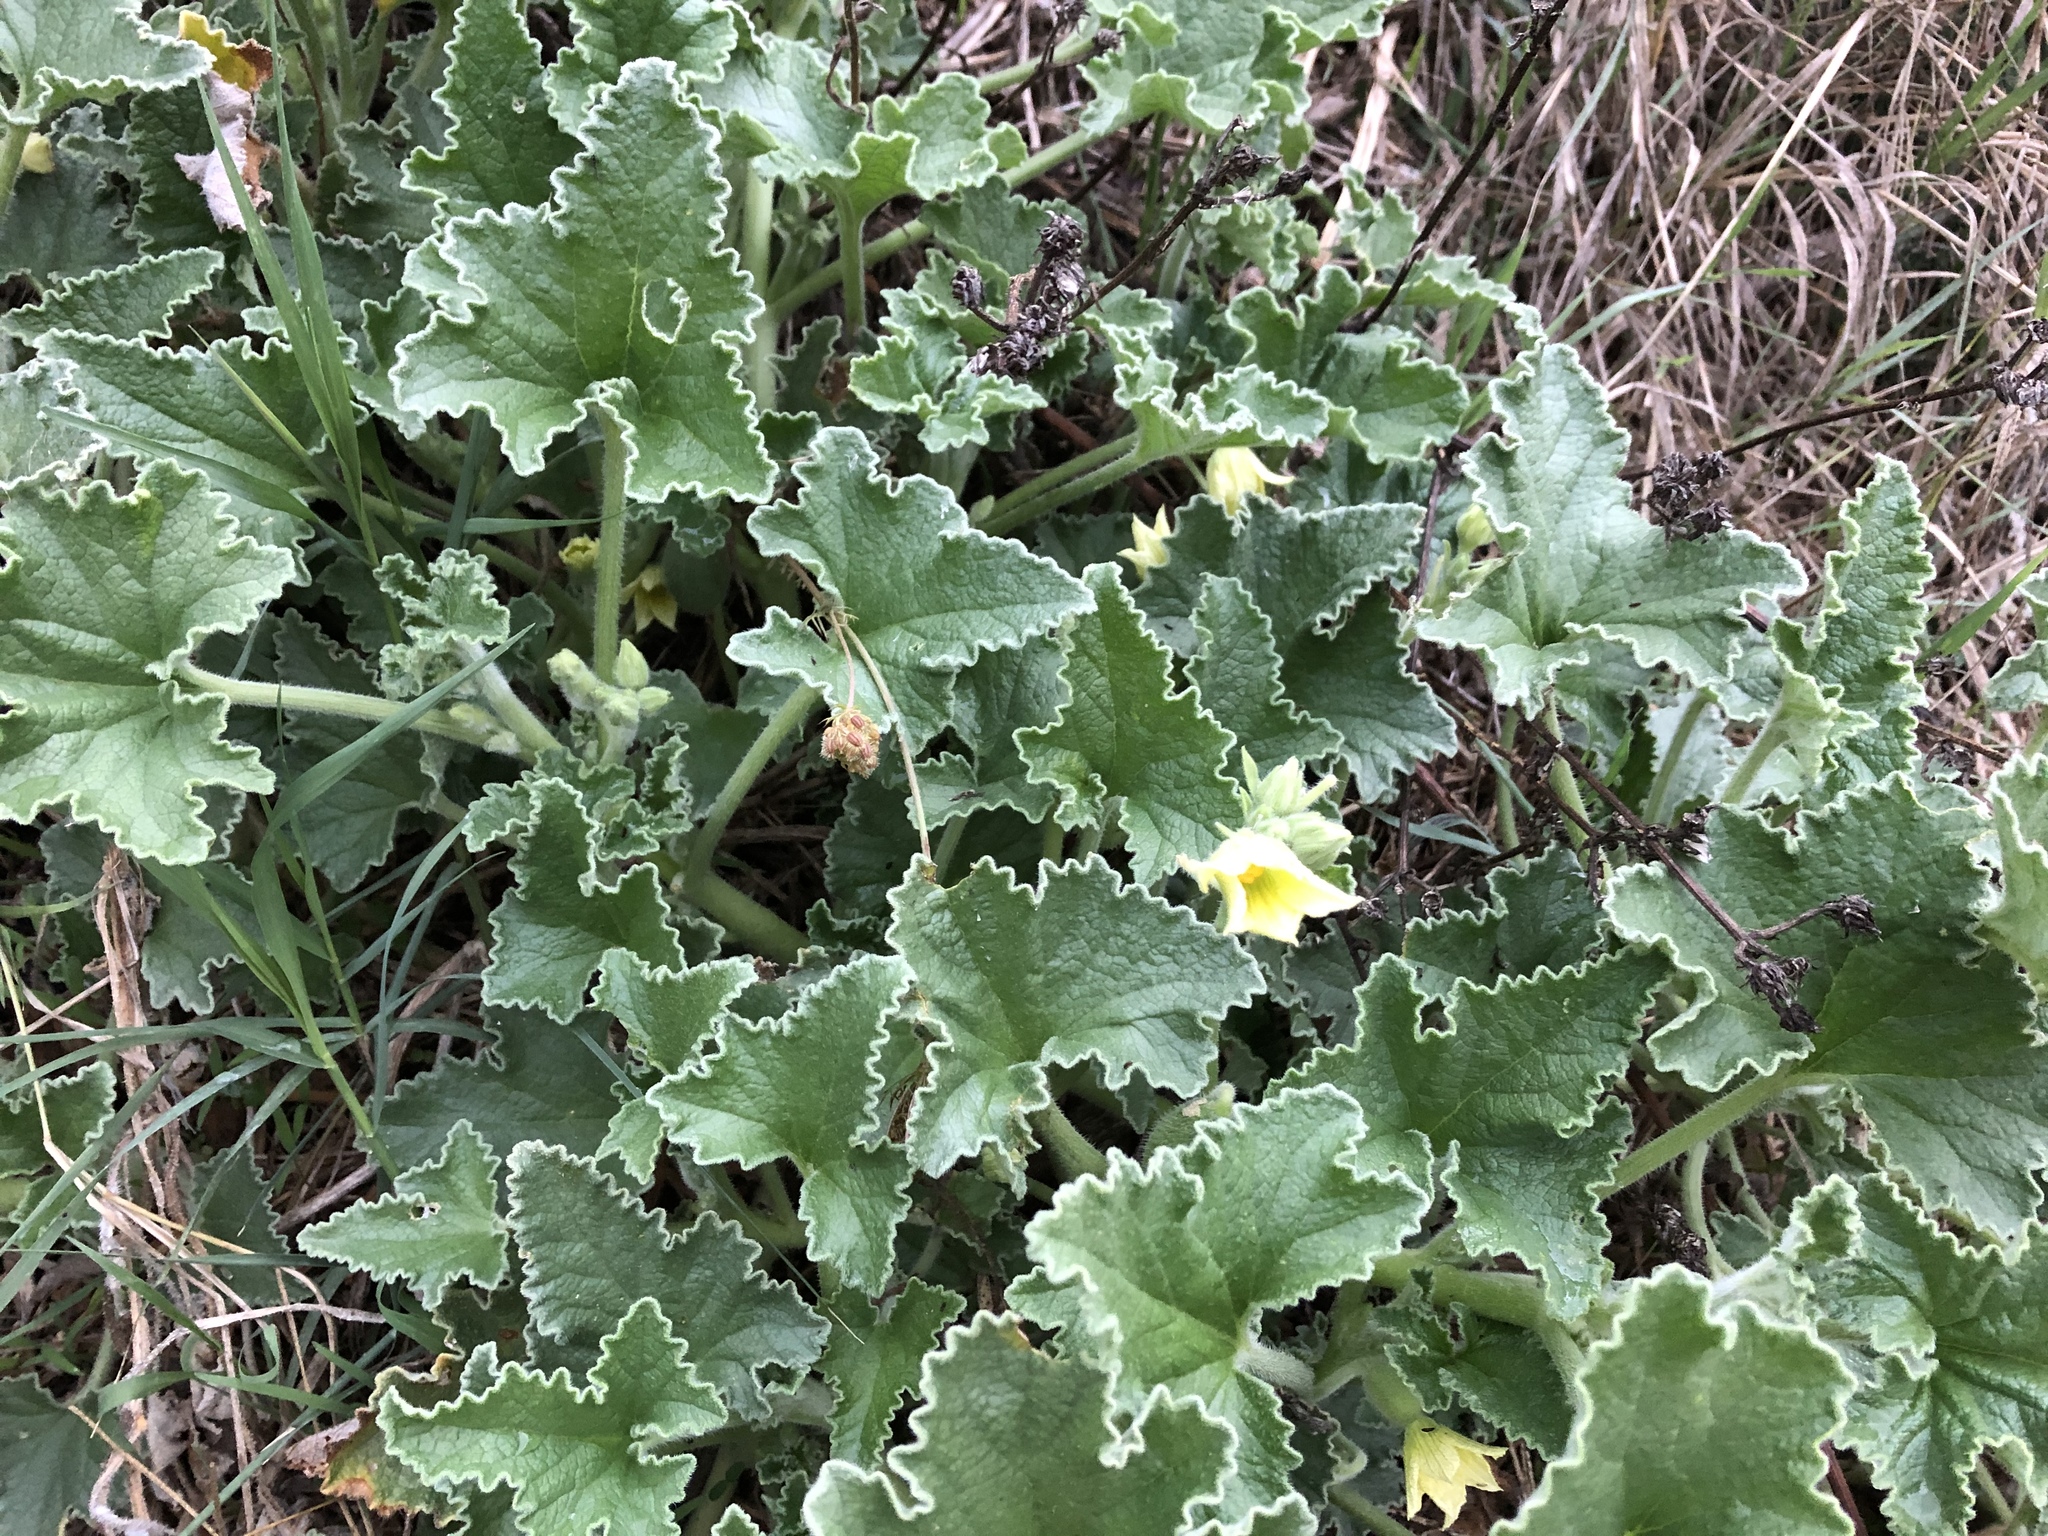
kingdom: Plantae
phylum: Tracheophyta
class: Magnoliopsida
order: Cucurbitales
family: Cucurbitaceae
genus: Ecballium
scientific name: Ecballium elaterium
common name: Squirting cucumber
